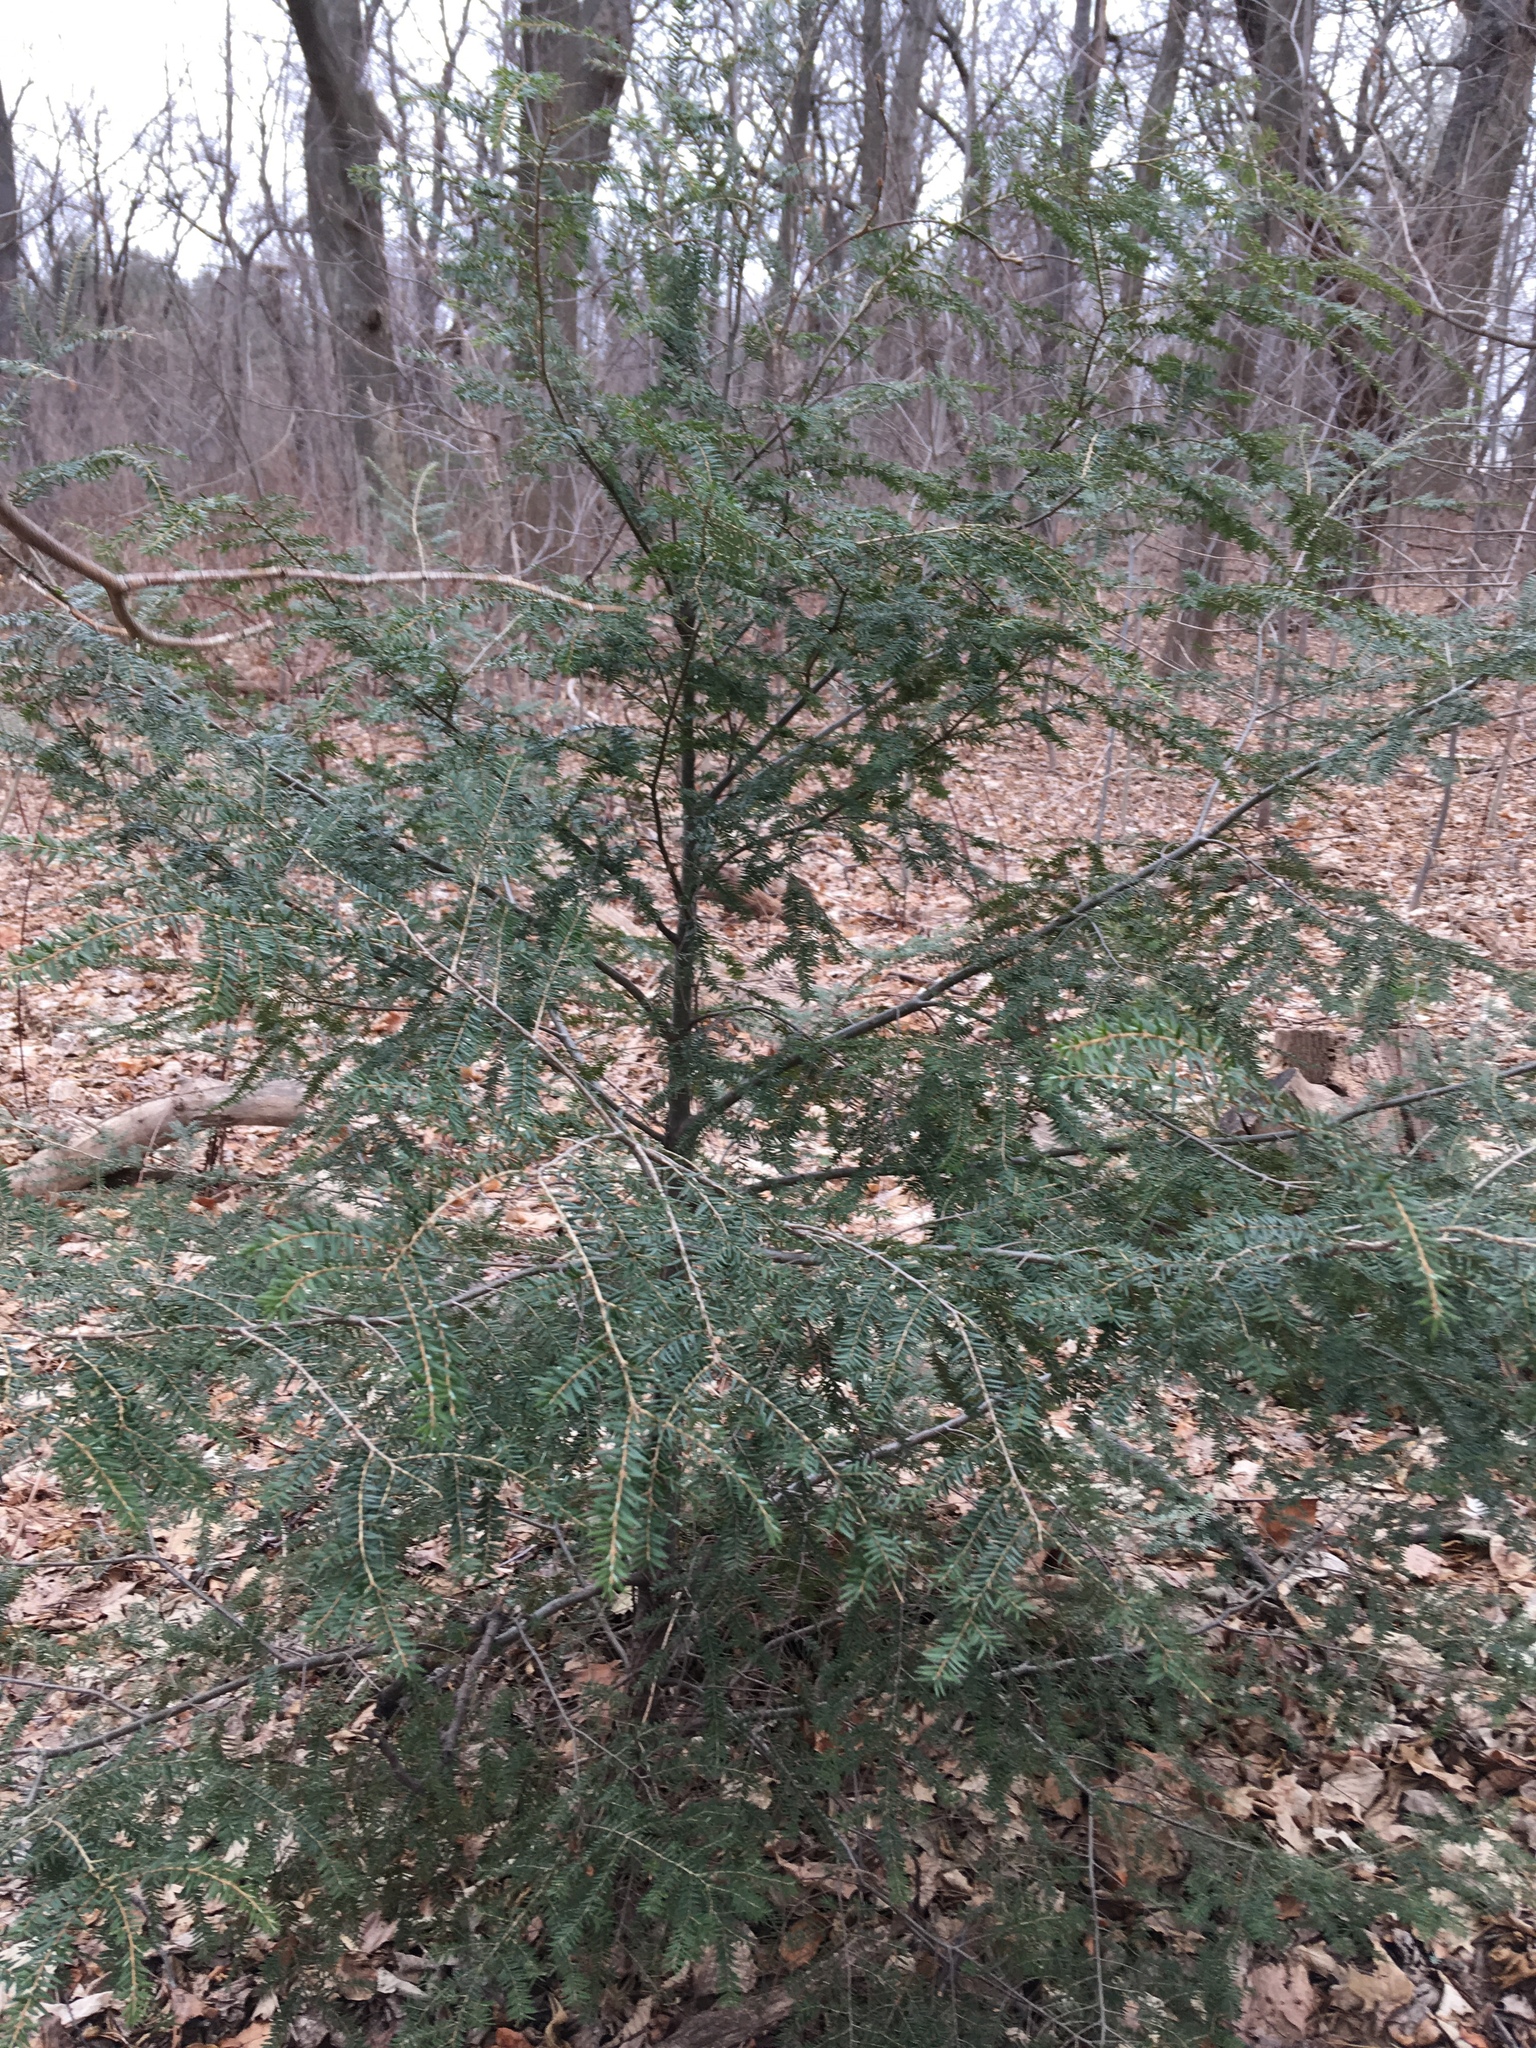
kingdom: Plantae
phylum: Tracheophyta
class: Pinopsida
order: Pinales
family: Pinaceae
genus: Tsuga
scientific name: Tsuga canadensis
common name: Eastern hemlock
